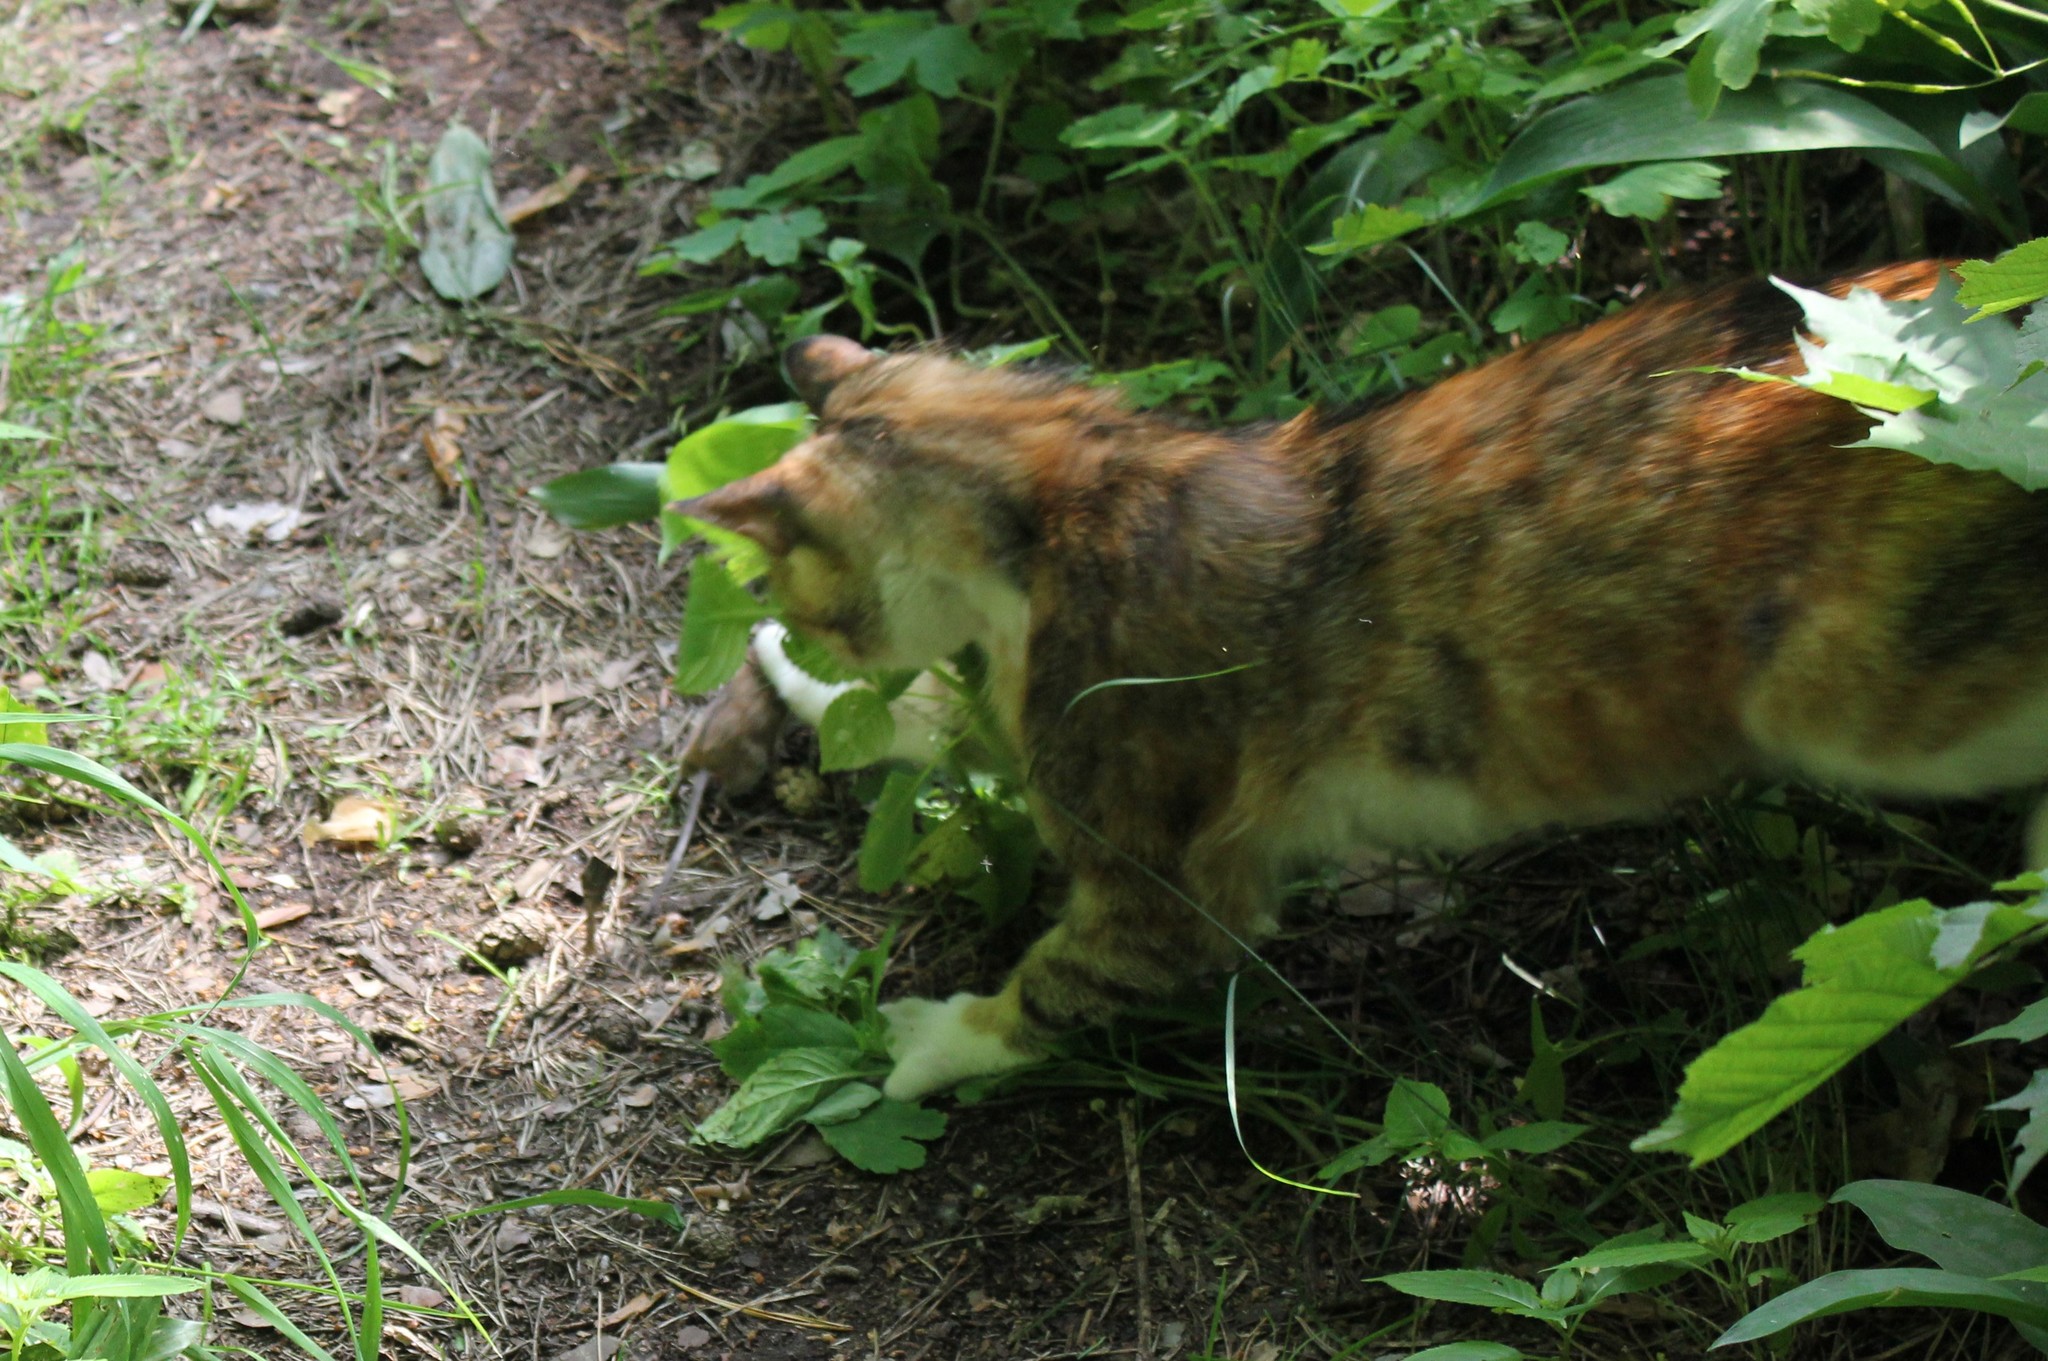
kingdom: Animalia
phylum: Chordata
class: Mammalia
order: Rodentia
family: Muridae
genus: Apodemus
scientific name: Apodemus agrarius
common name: Striped field mouse
